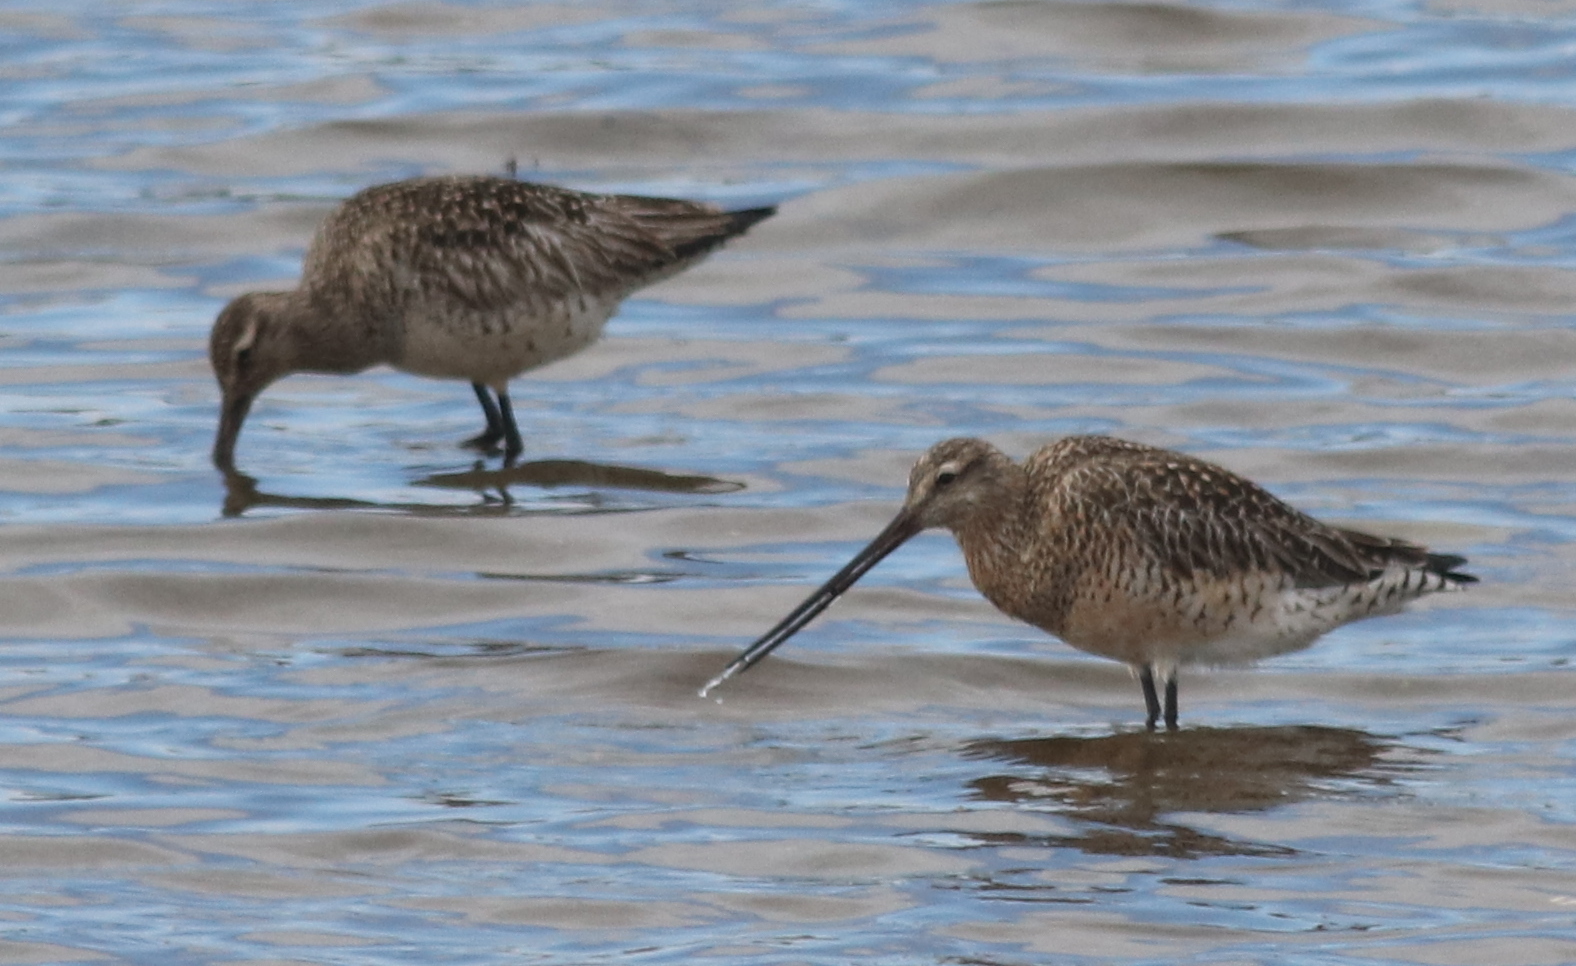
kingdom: Animalia
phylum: Chordata
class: Aves
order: Charadriiformes
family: Scolopacidae
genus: Limosa
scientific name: Limosa lapponica
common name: Bar-tailed godwit
